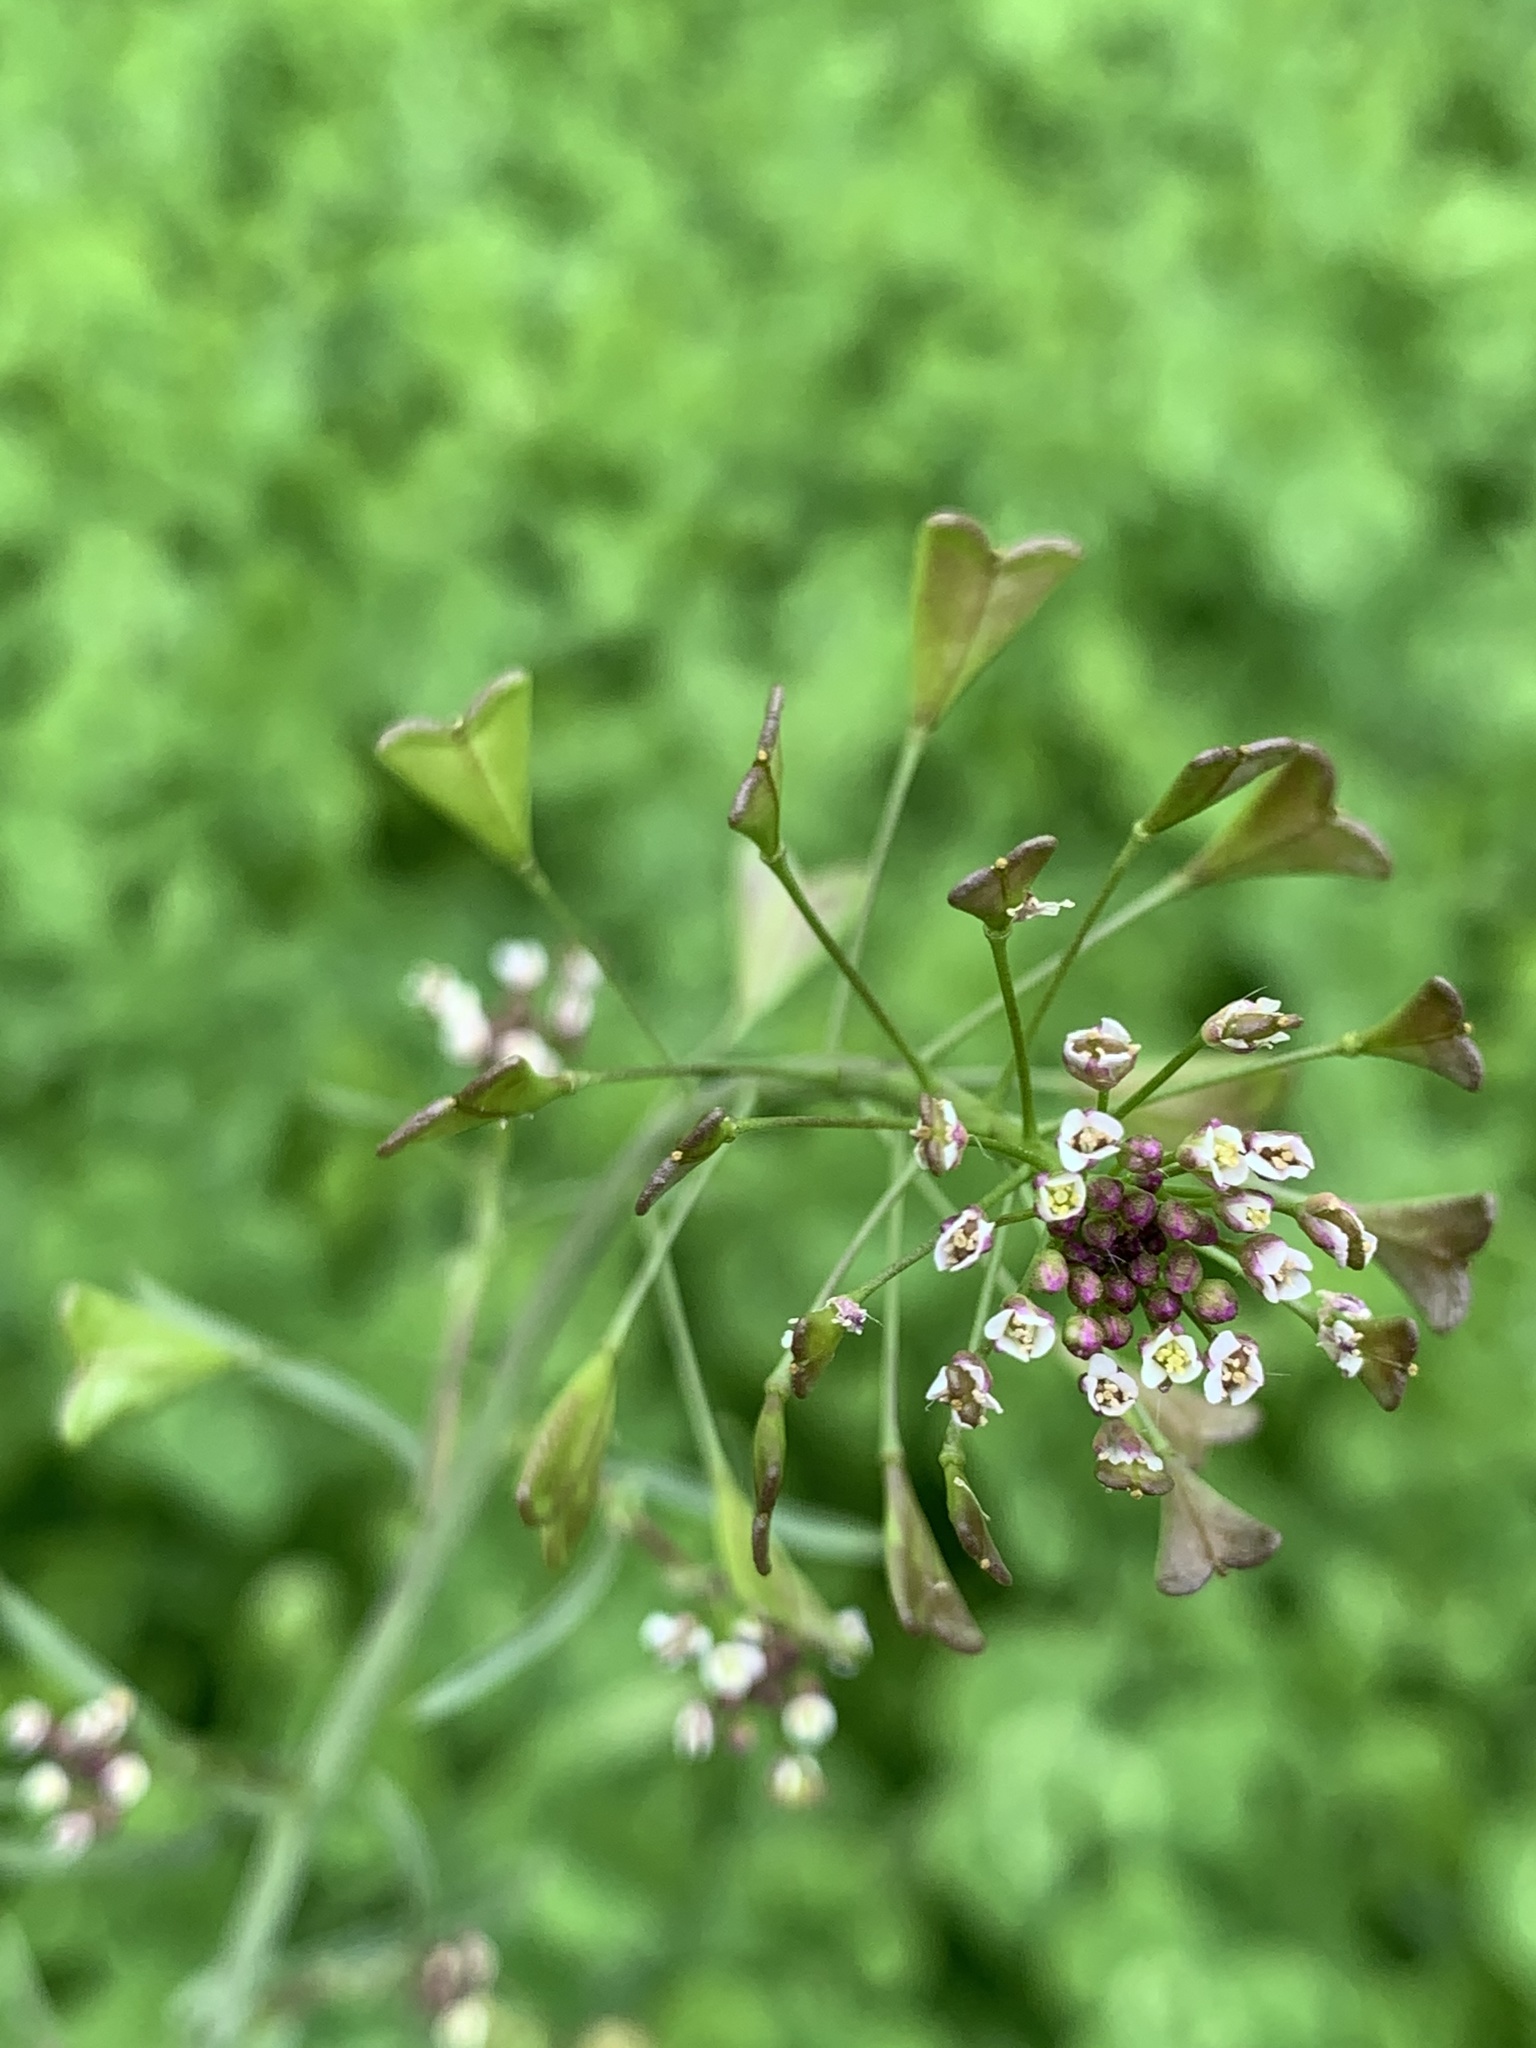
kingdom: Plantae
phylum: Tracheophyta
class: Magnoliopsida
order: Brassicales
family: Brassicaceae
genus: Capsella
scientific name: Capsella bursa-pastoris
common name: Shepherd's purse
